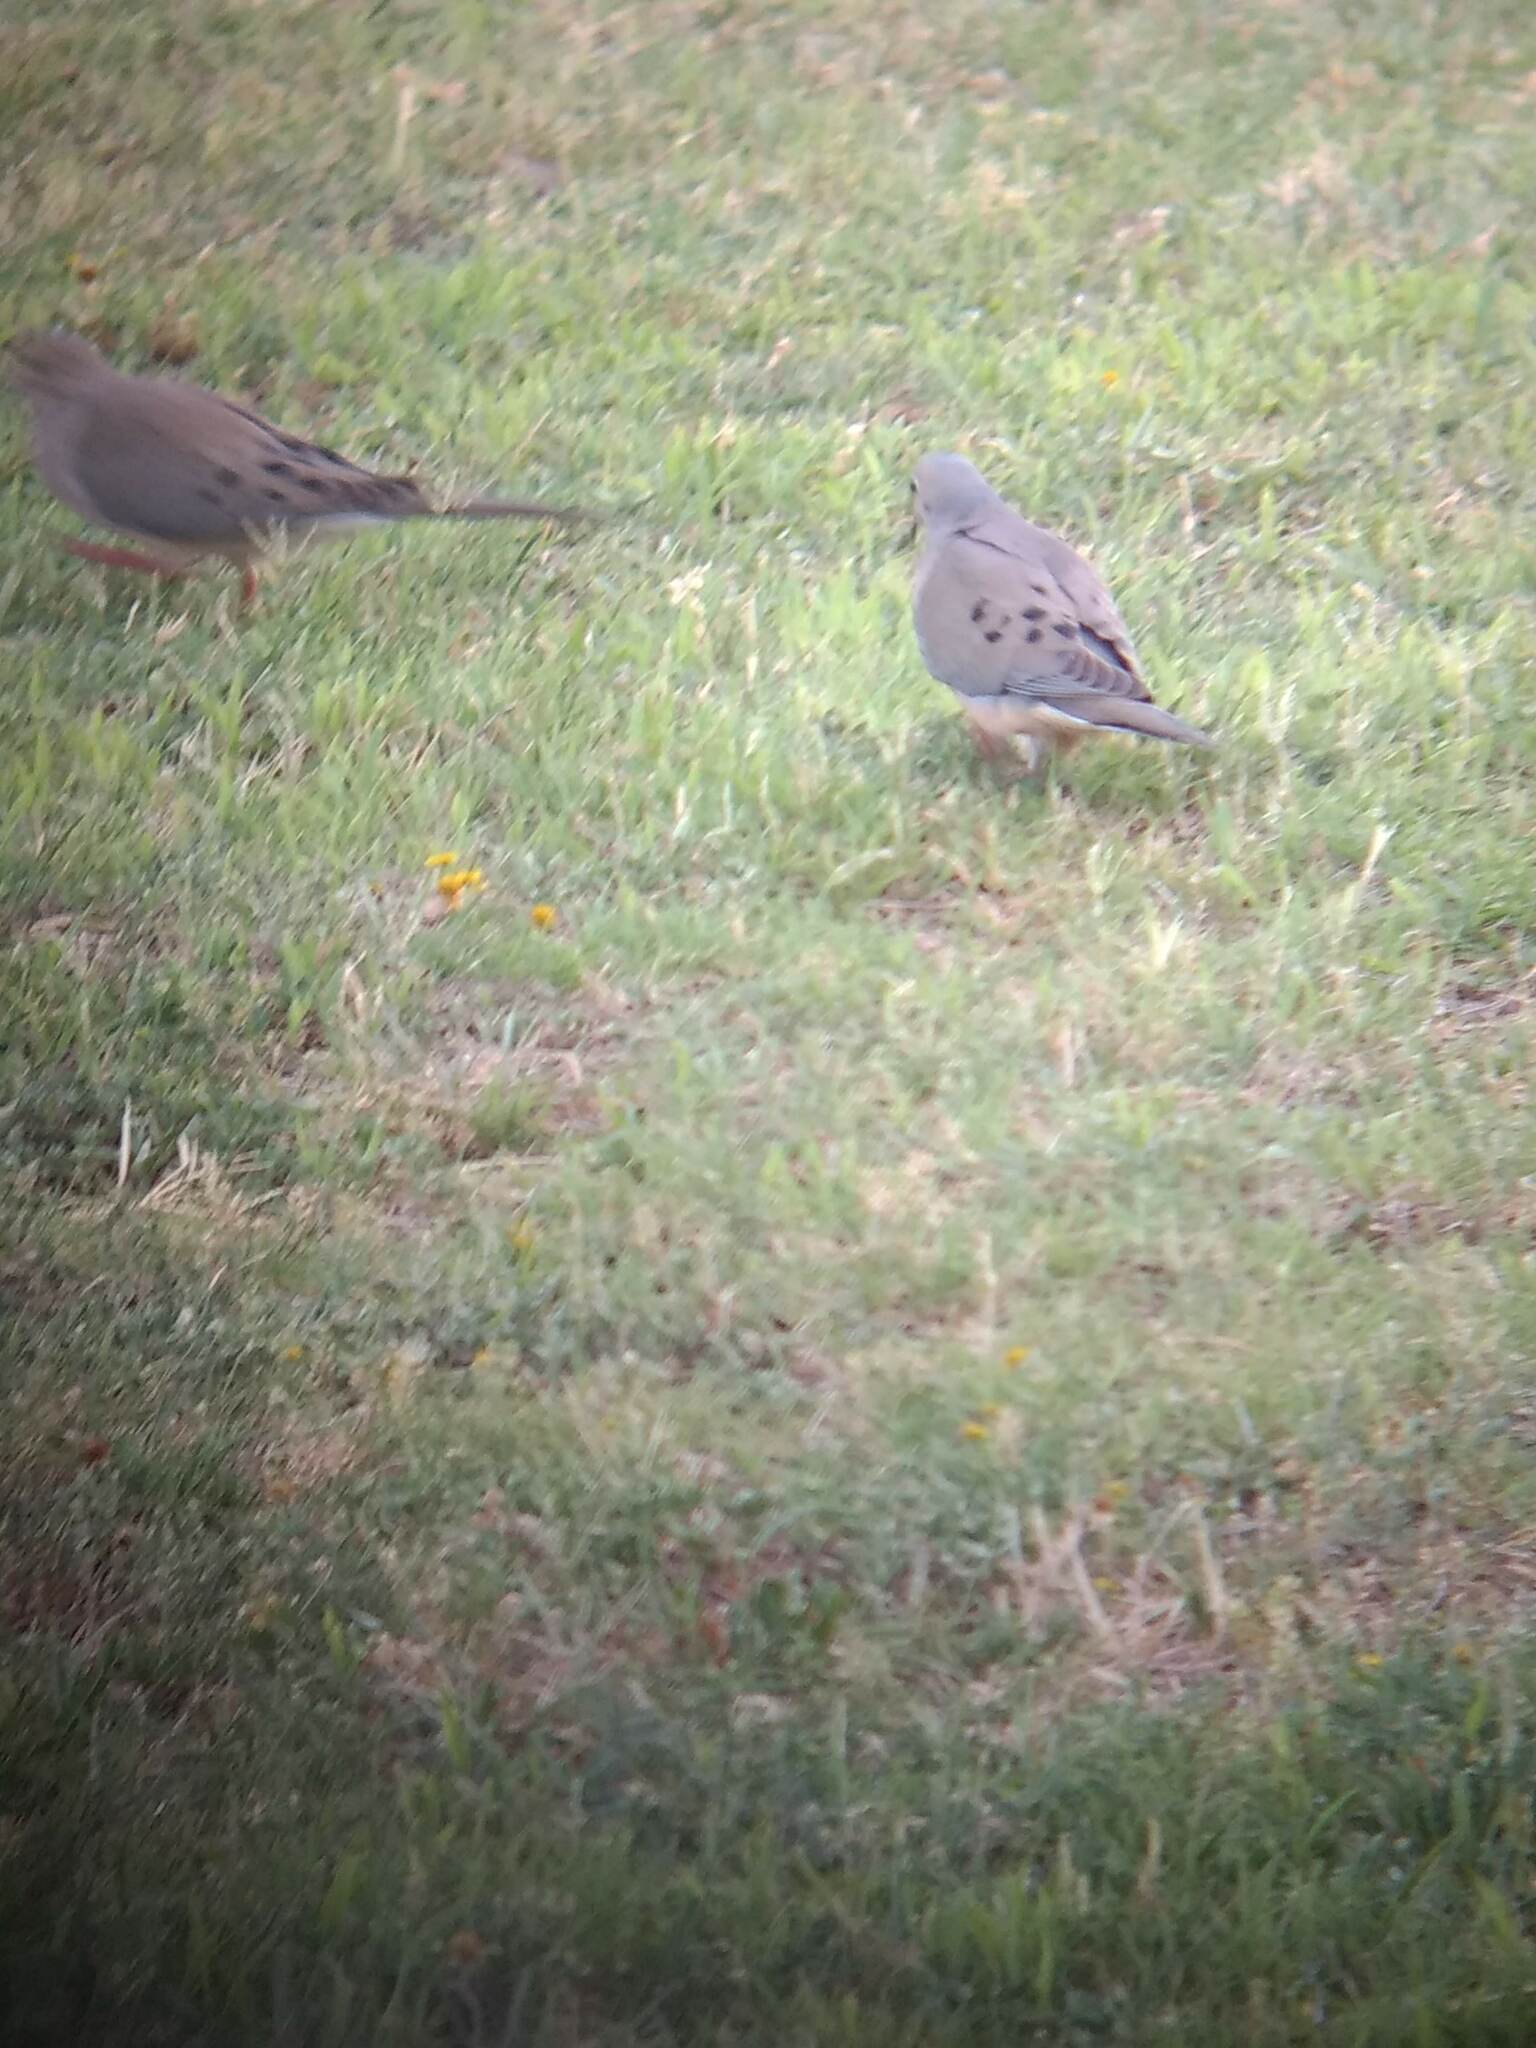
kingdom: Animalia
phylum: Chordata
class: Aves
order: Columbiformes
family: Columbidae
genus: Zenaida
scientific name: Zenaida macroura
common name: Mourning dove
